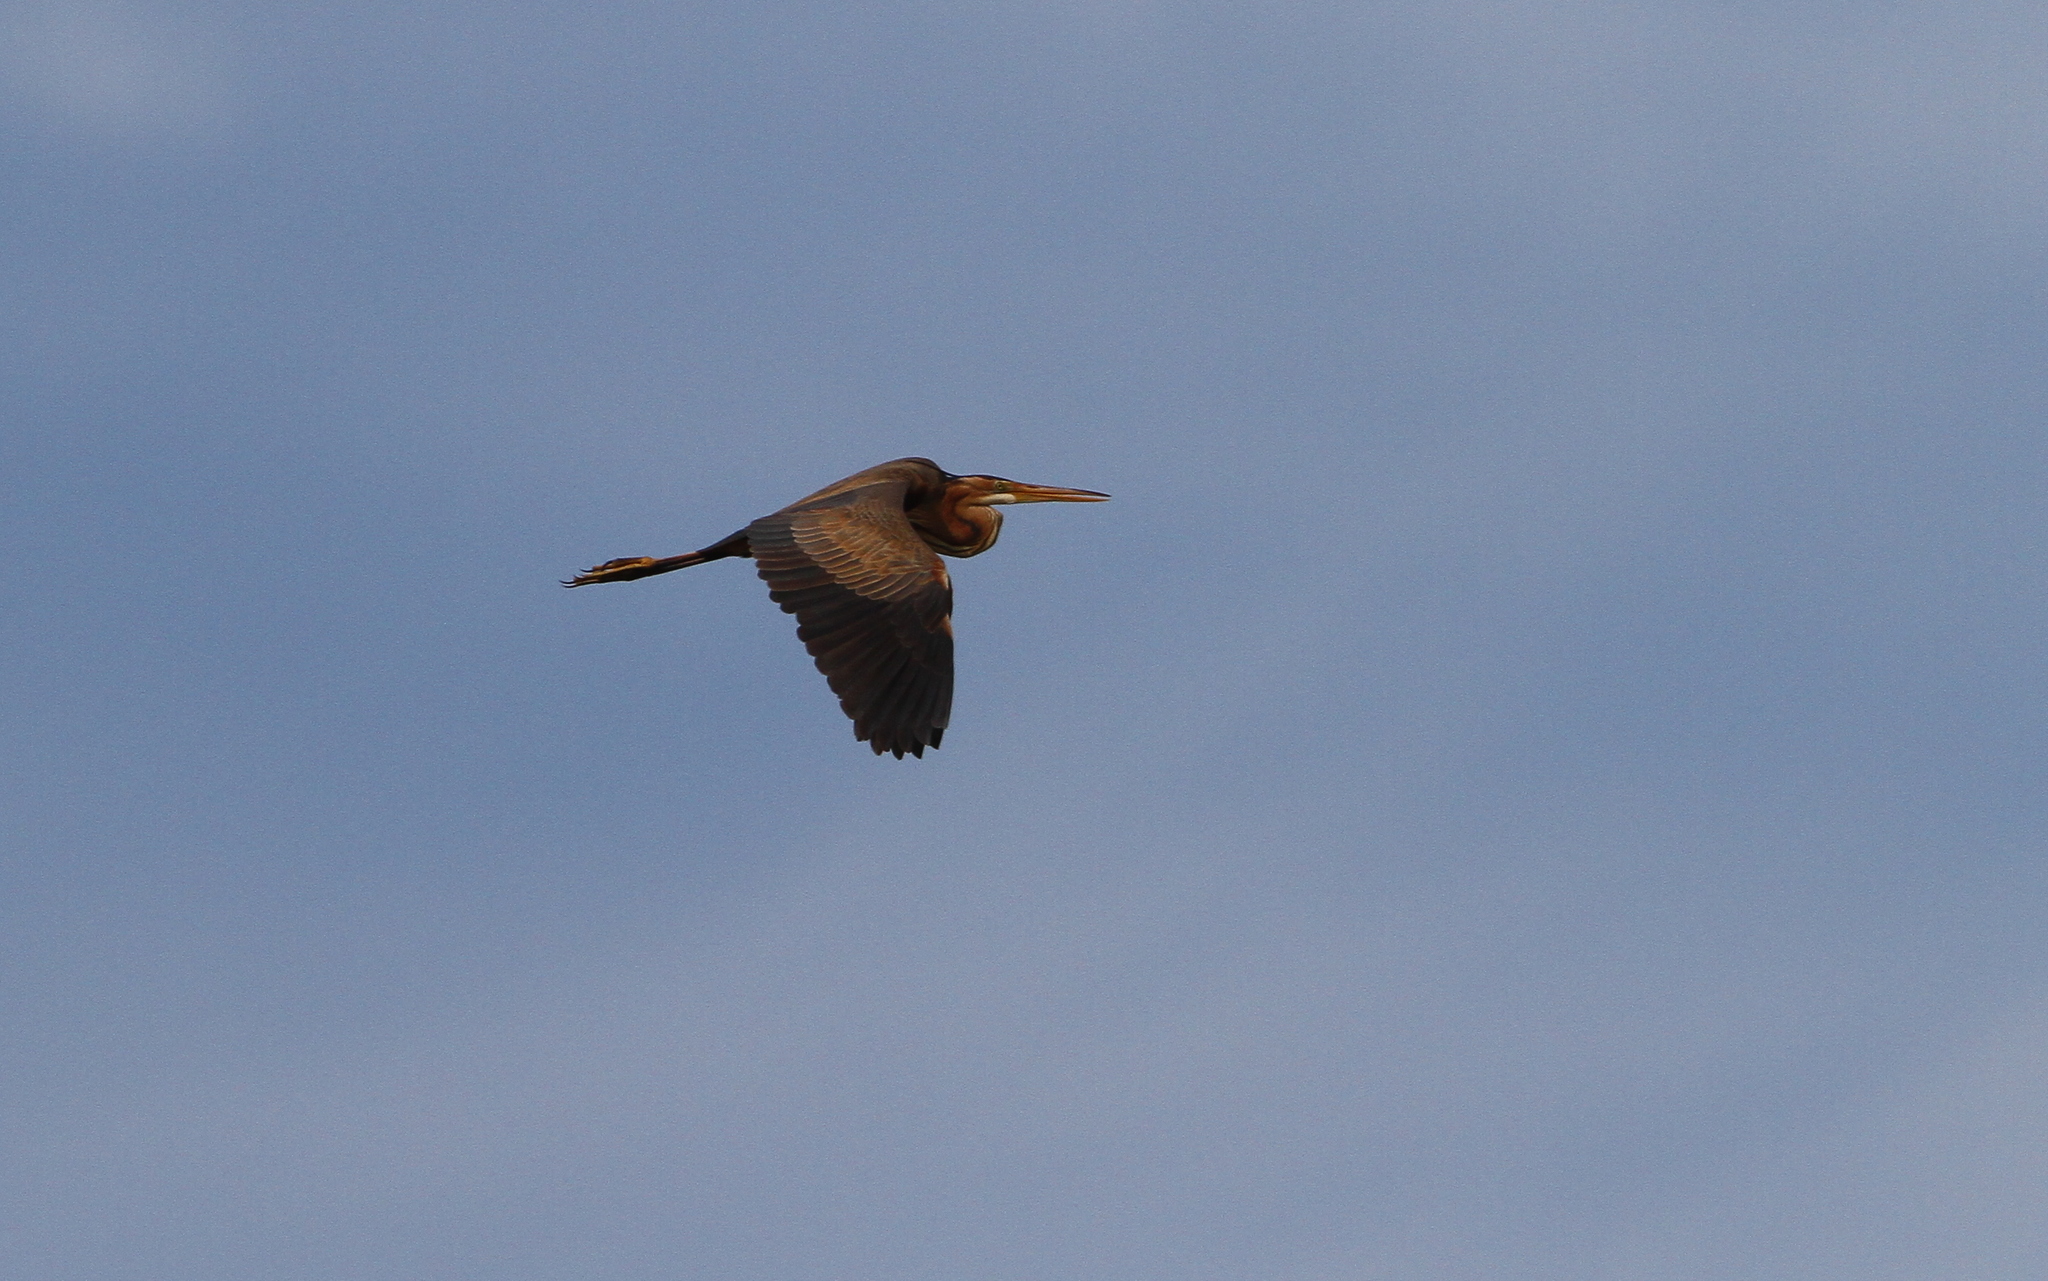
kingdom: Animalia
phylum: Chordata
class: Aves
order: Pelecaniformes
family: Ardeidae
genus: Ardea
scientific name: Ardea purpurea
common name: Purple heron
